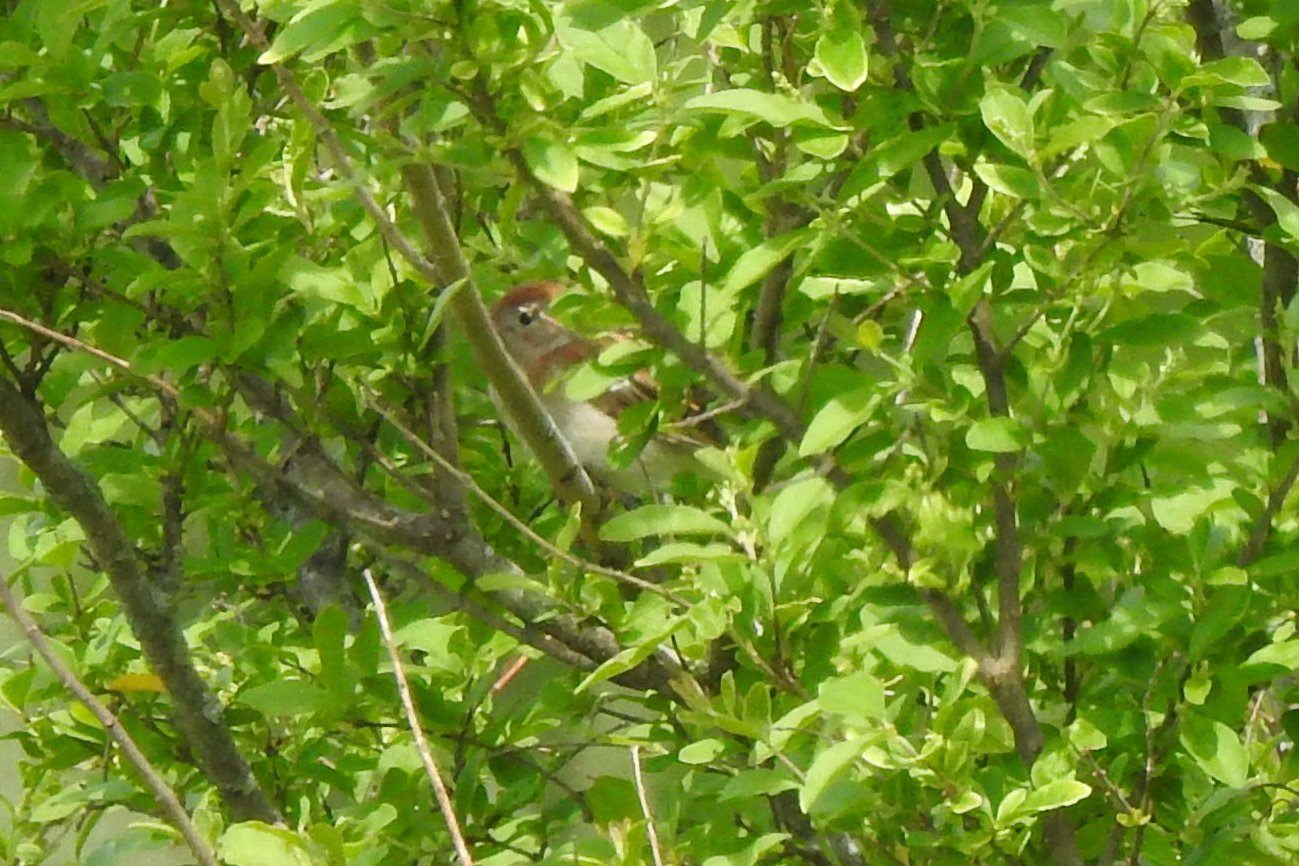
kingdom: Animalia
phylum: Chordata
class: Aves
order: Passeriformes
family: Passerellidae
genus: Spizella
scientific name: Spizella pusilla
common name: Field sparrow
